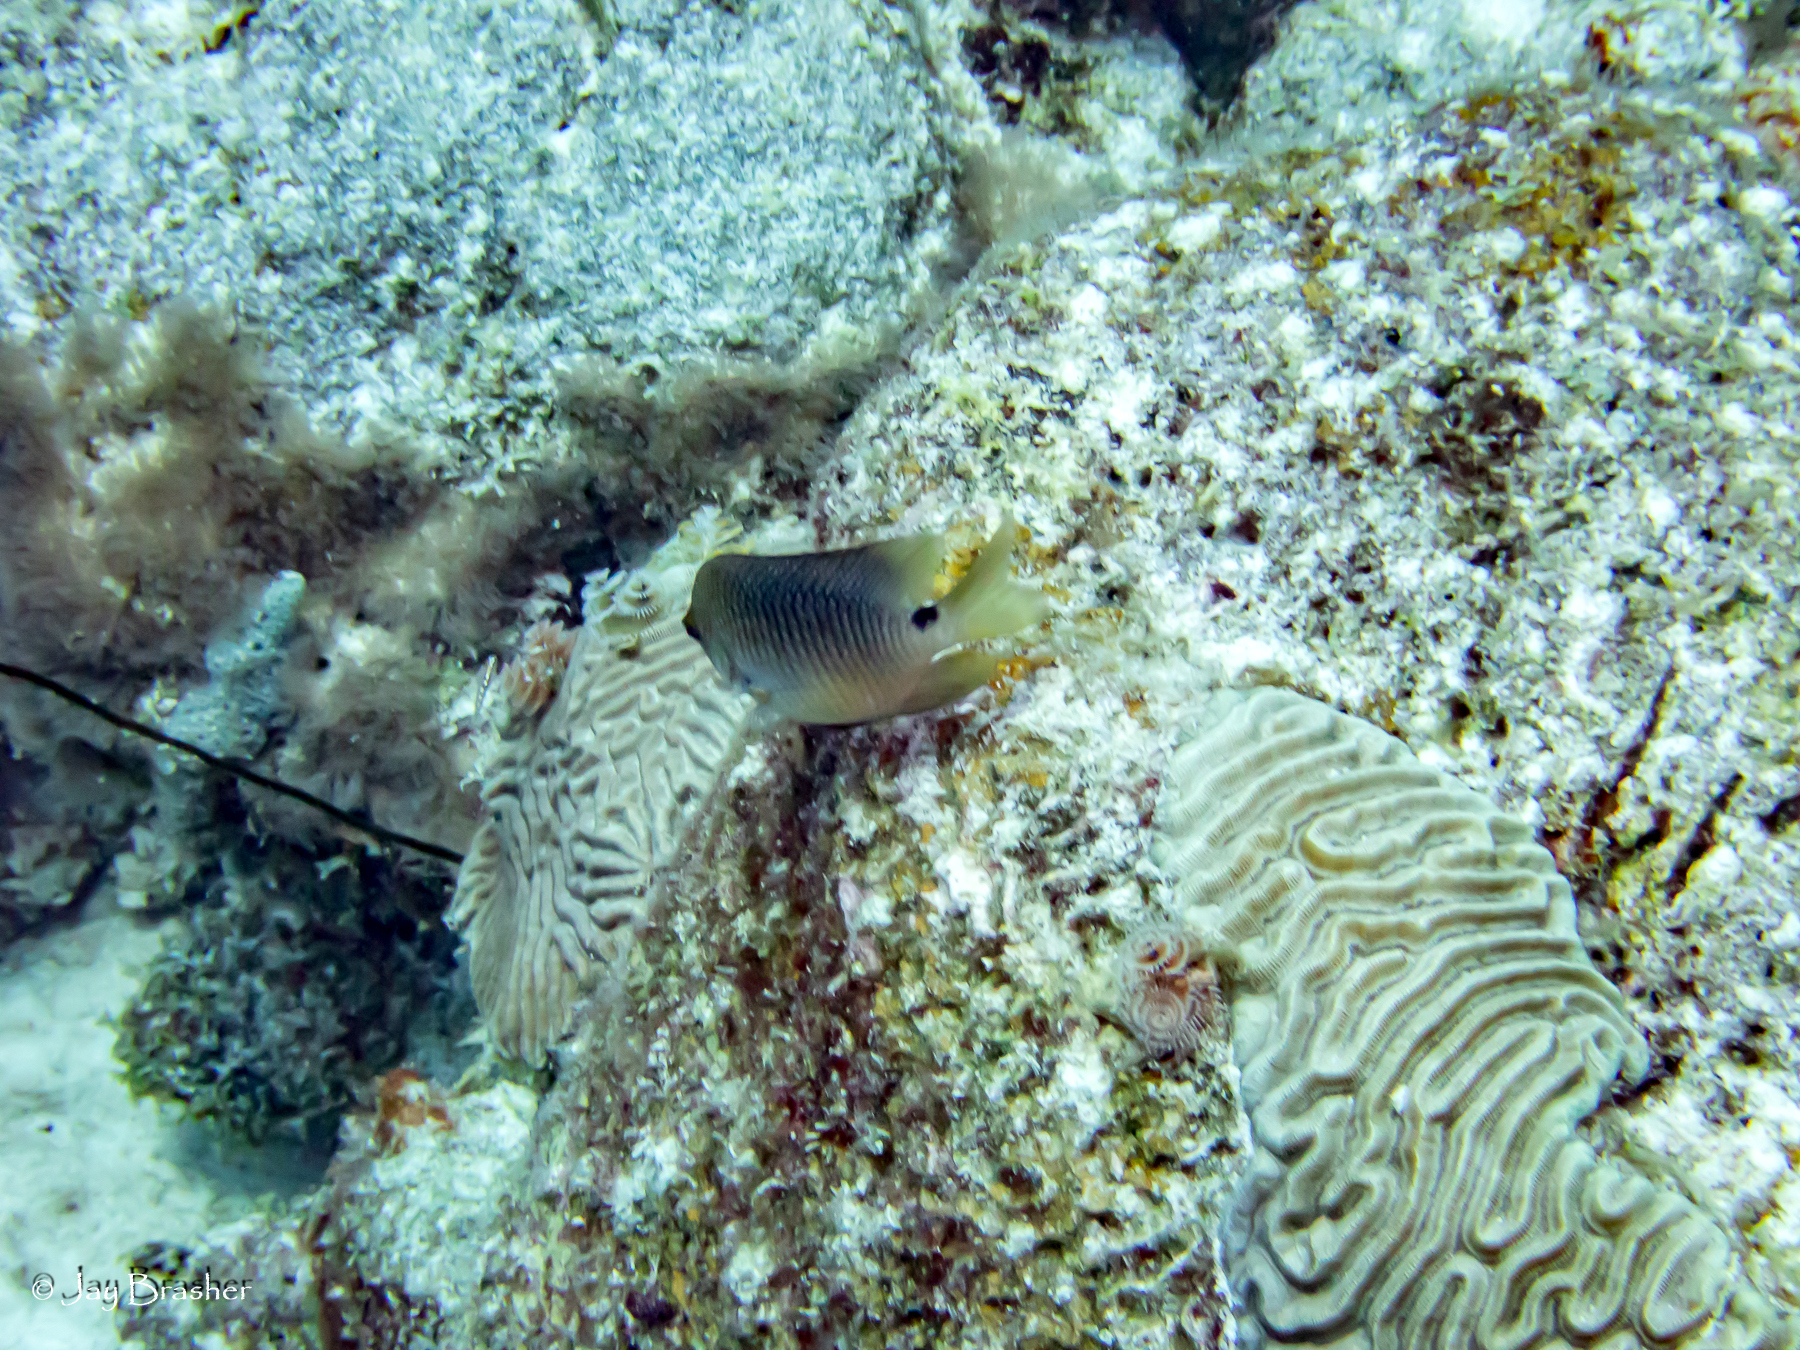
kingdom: Animalia
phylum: Chordata
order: Perciformes
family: Pomacentridae
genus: Stegastes
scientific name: Stegastes planifrons
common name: Threespot damselfish
